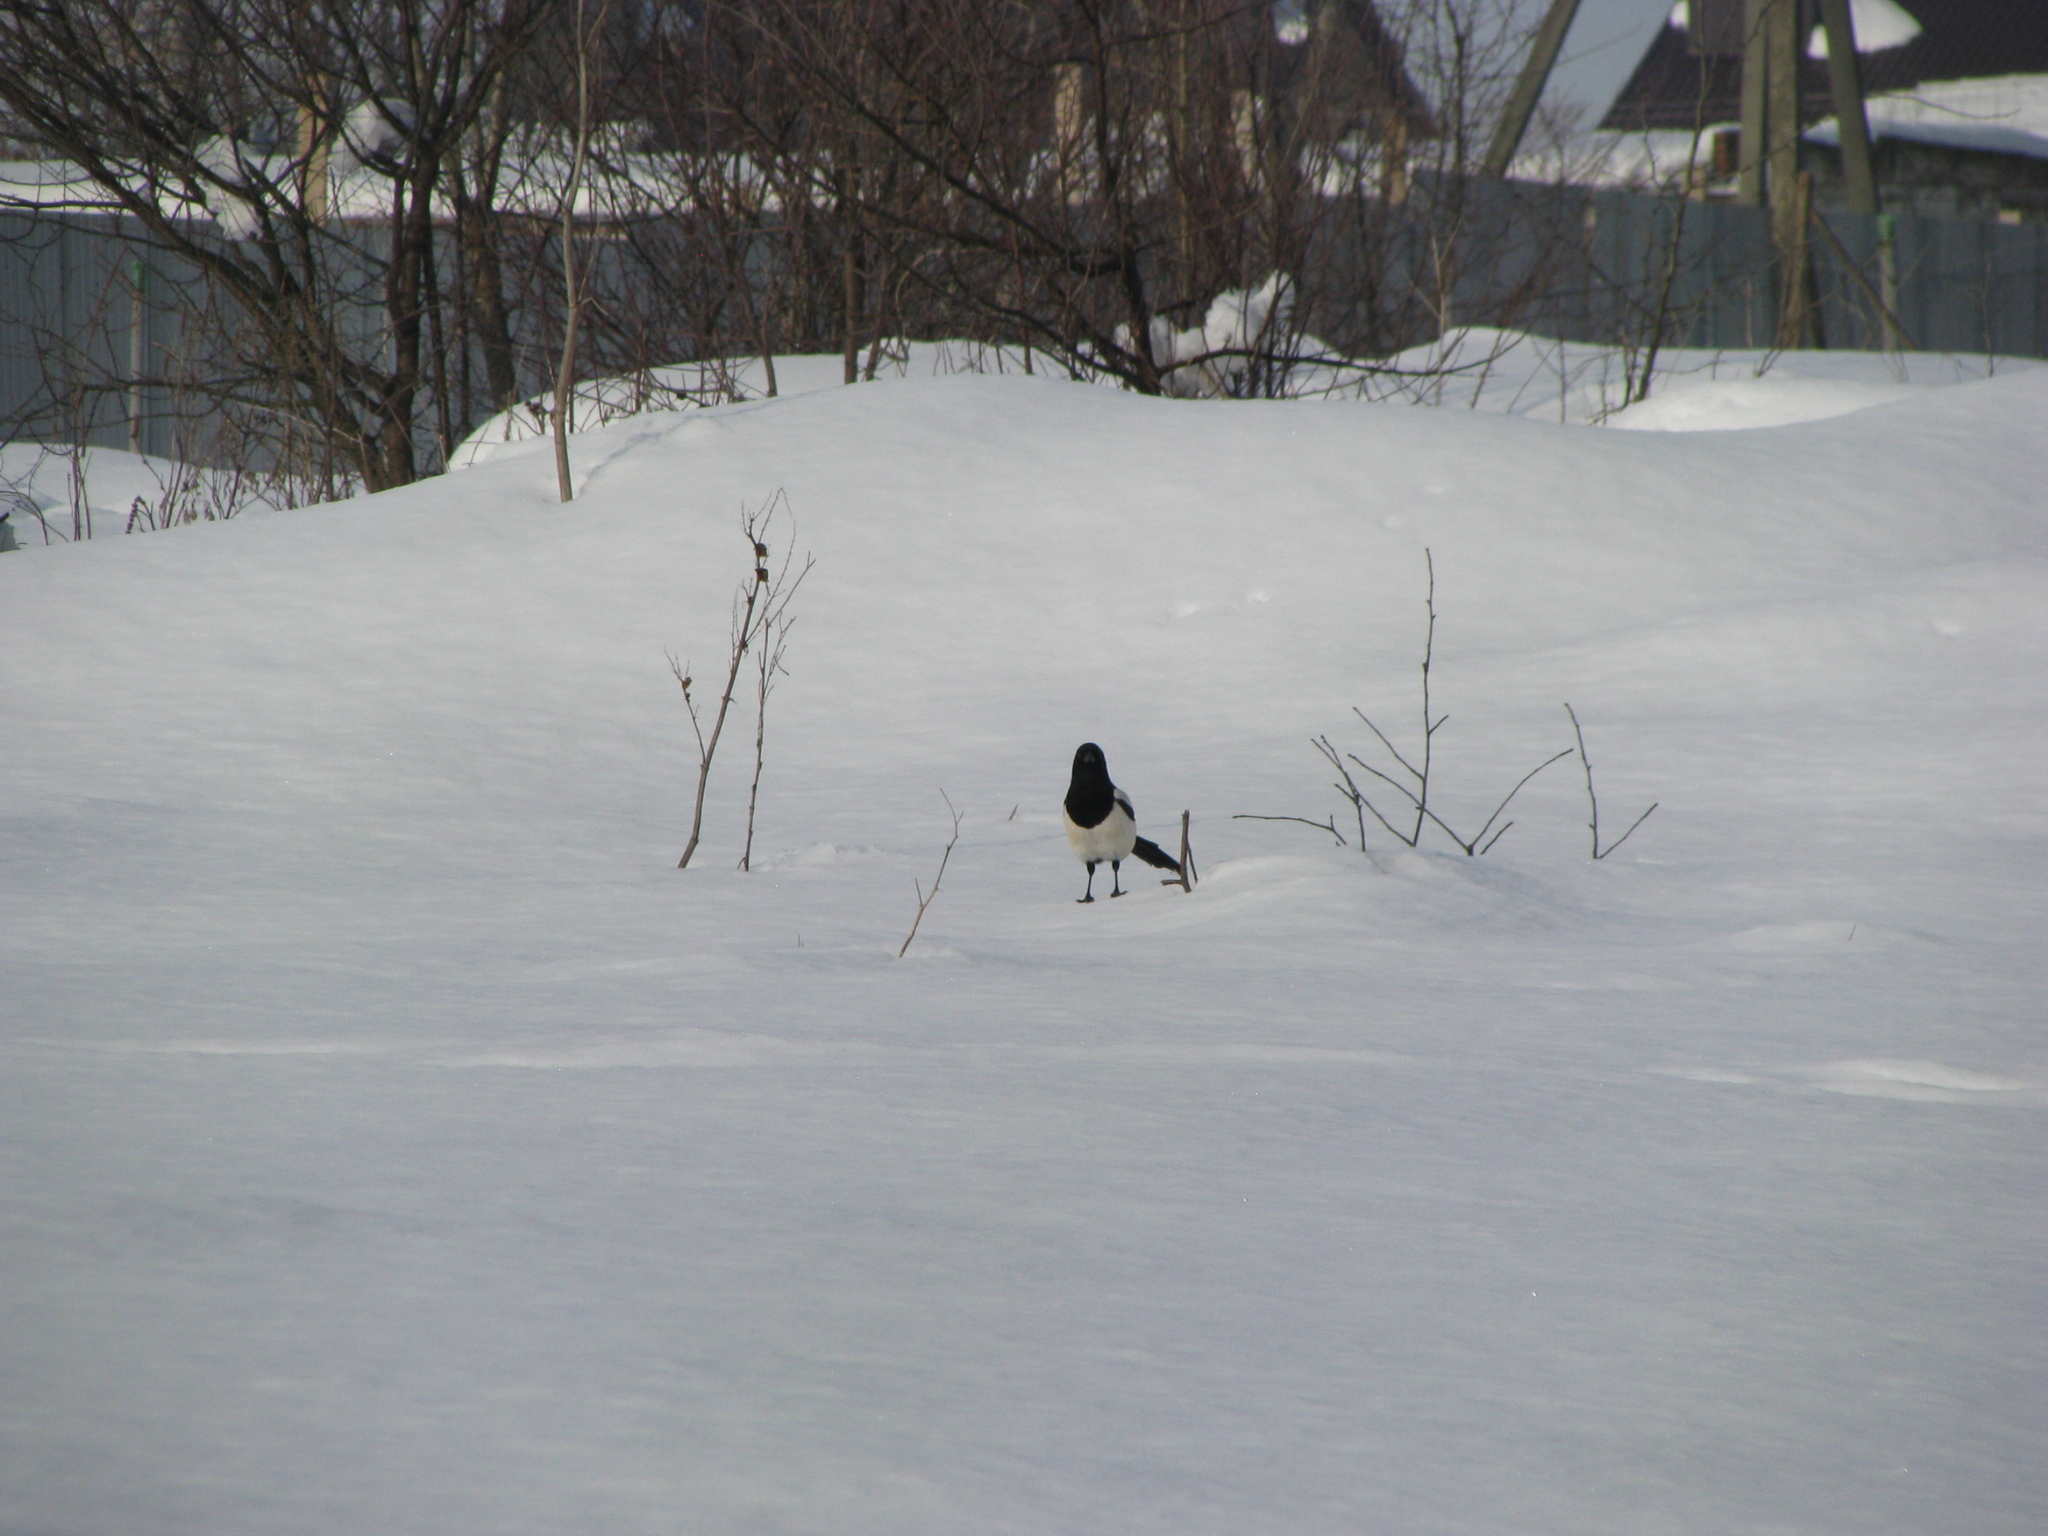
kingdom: Animalia
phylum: Chordata
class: Aves
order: Passeriformes
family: Corvidae
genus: Pica
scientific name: Pica pica
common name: Eurasian magpie
